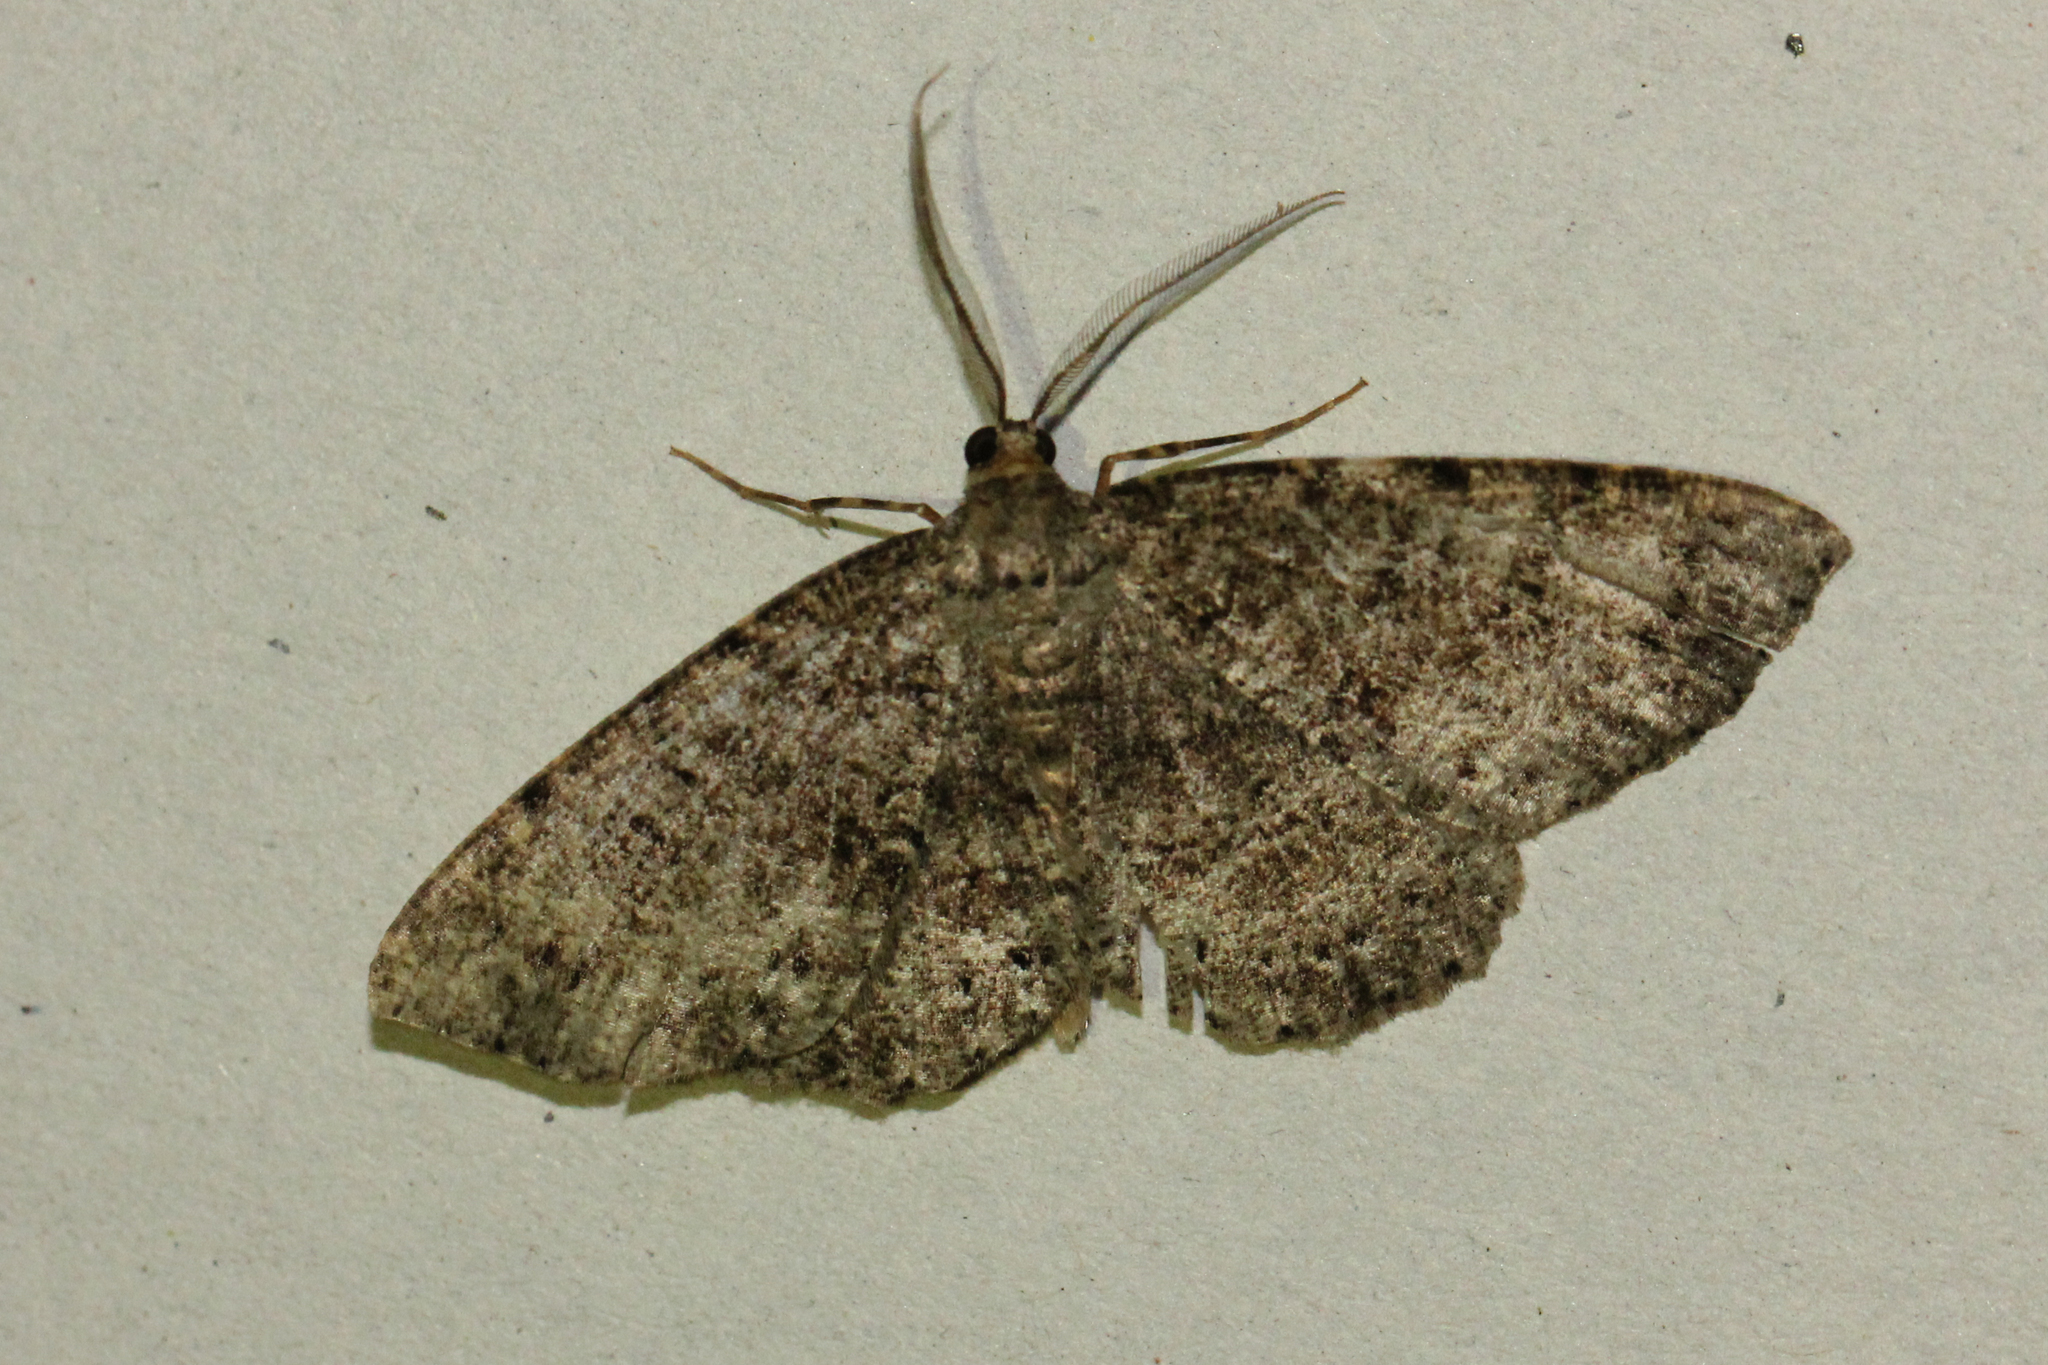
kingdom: Animalia
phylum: Arthropoda
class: Insecta
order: Lepidoptera
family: Geometridae
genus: Melanolophia
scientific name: Melanolophia canadaria
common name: Canadian melanolophia
